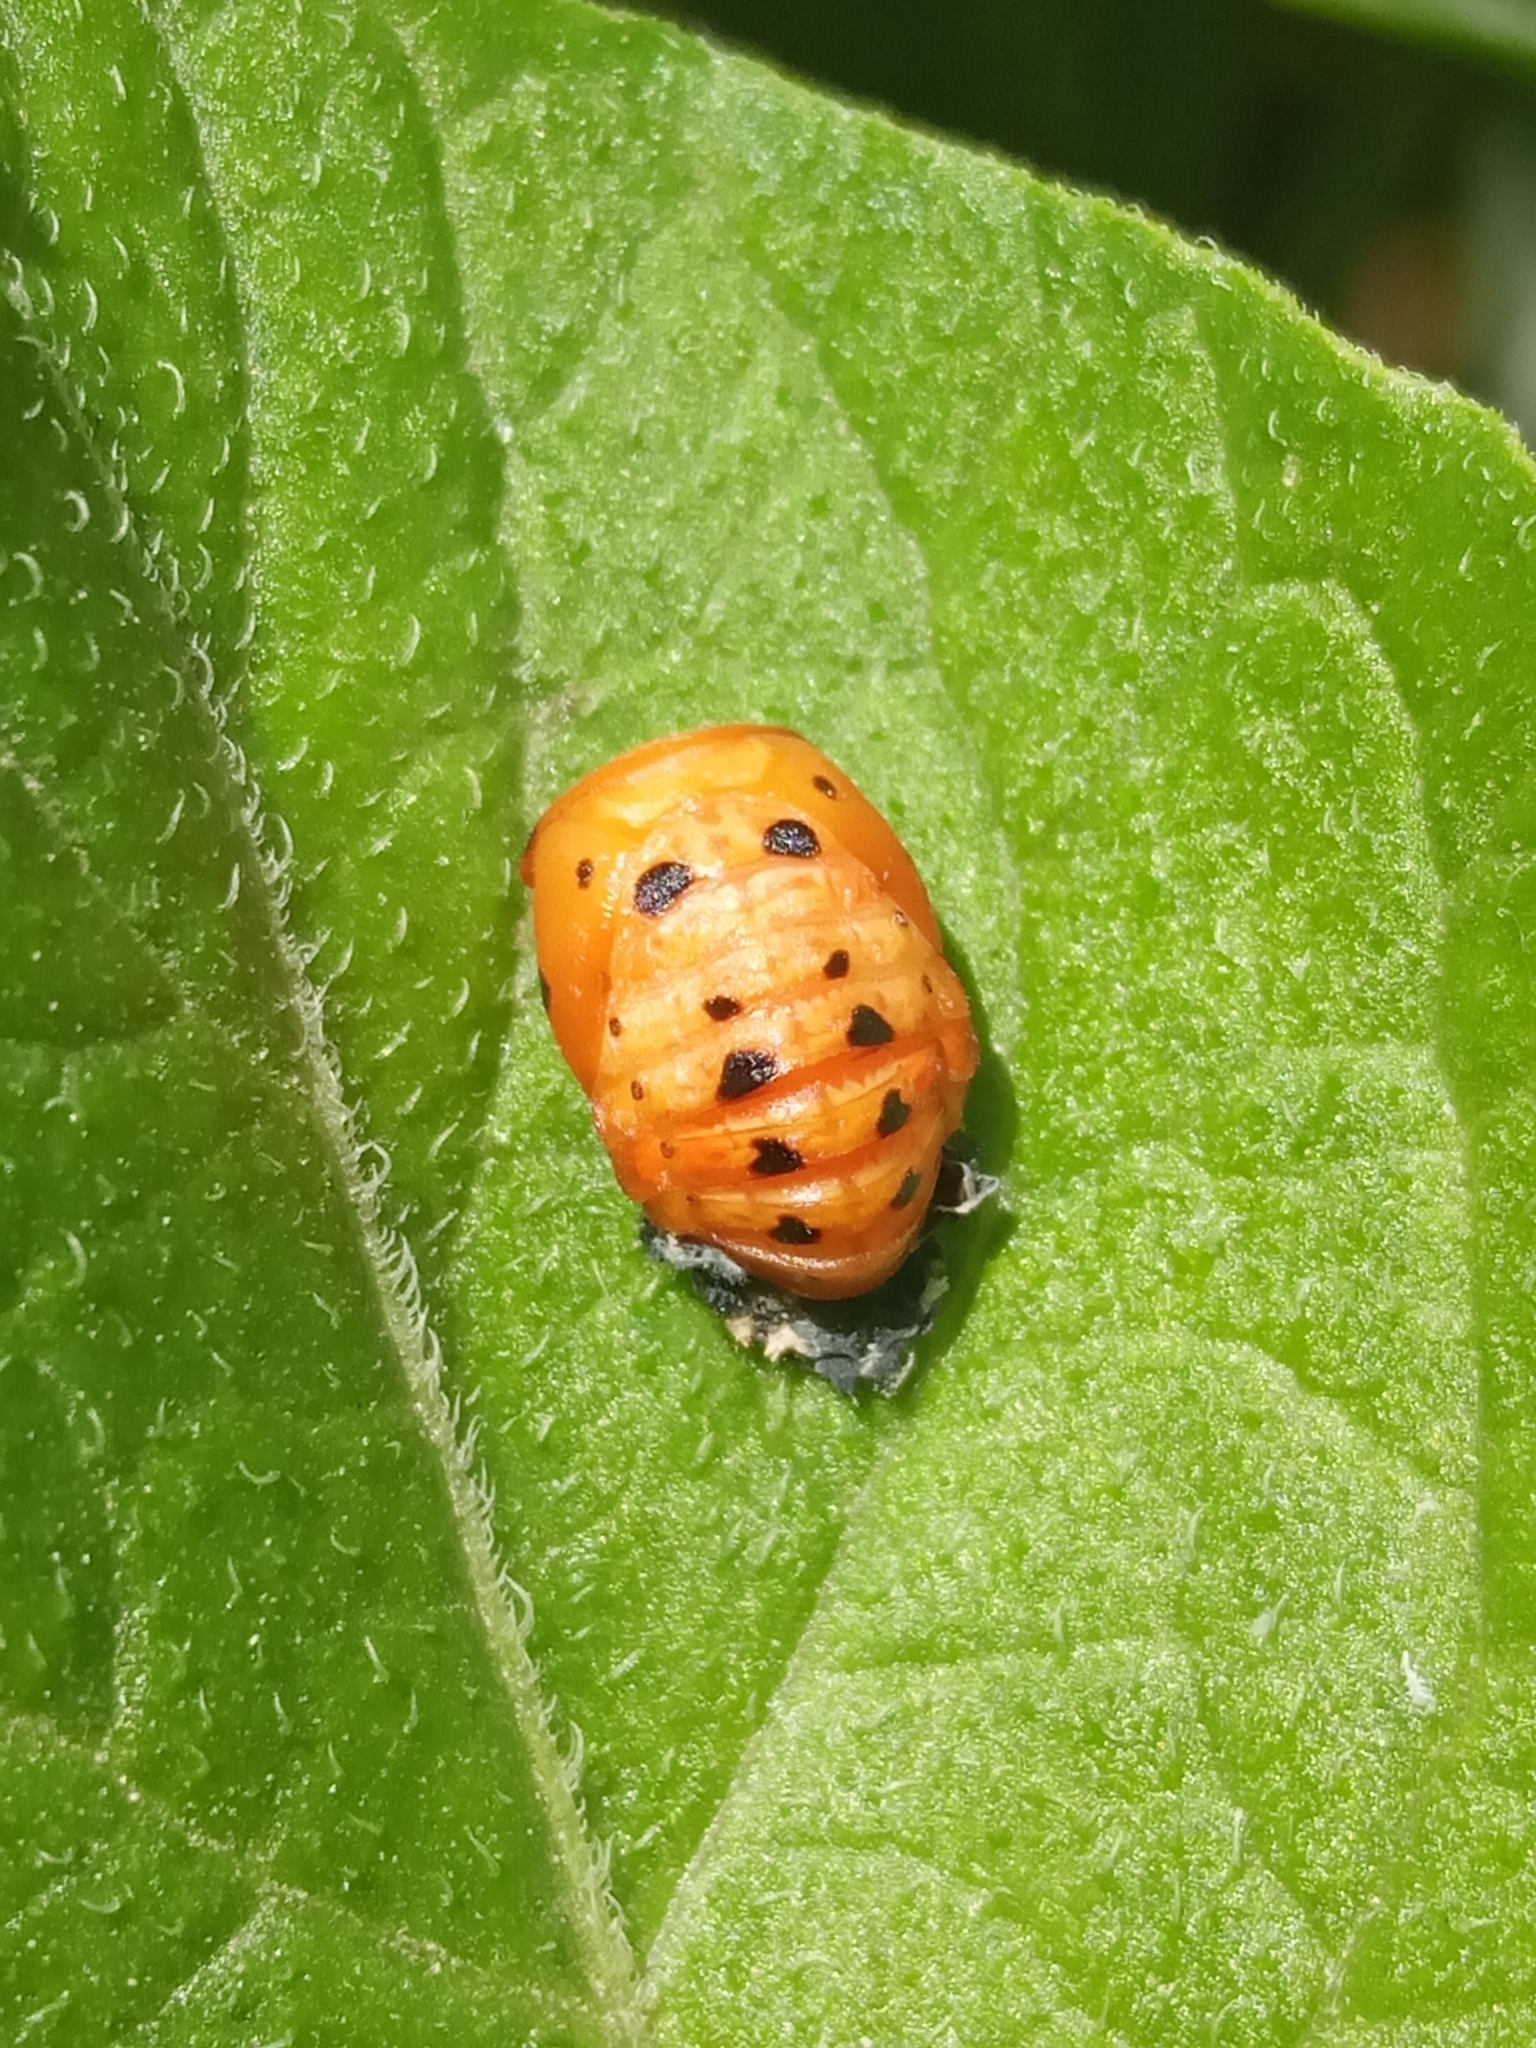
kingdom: Animalia
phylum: Arthropoda
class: Insecta
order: Coleoptera
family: Coccinellidae
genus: Coccinella
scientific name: Coccinella septempunctata
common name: Sevenspotted lady beetle
